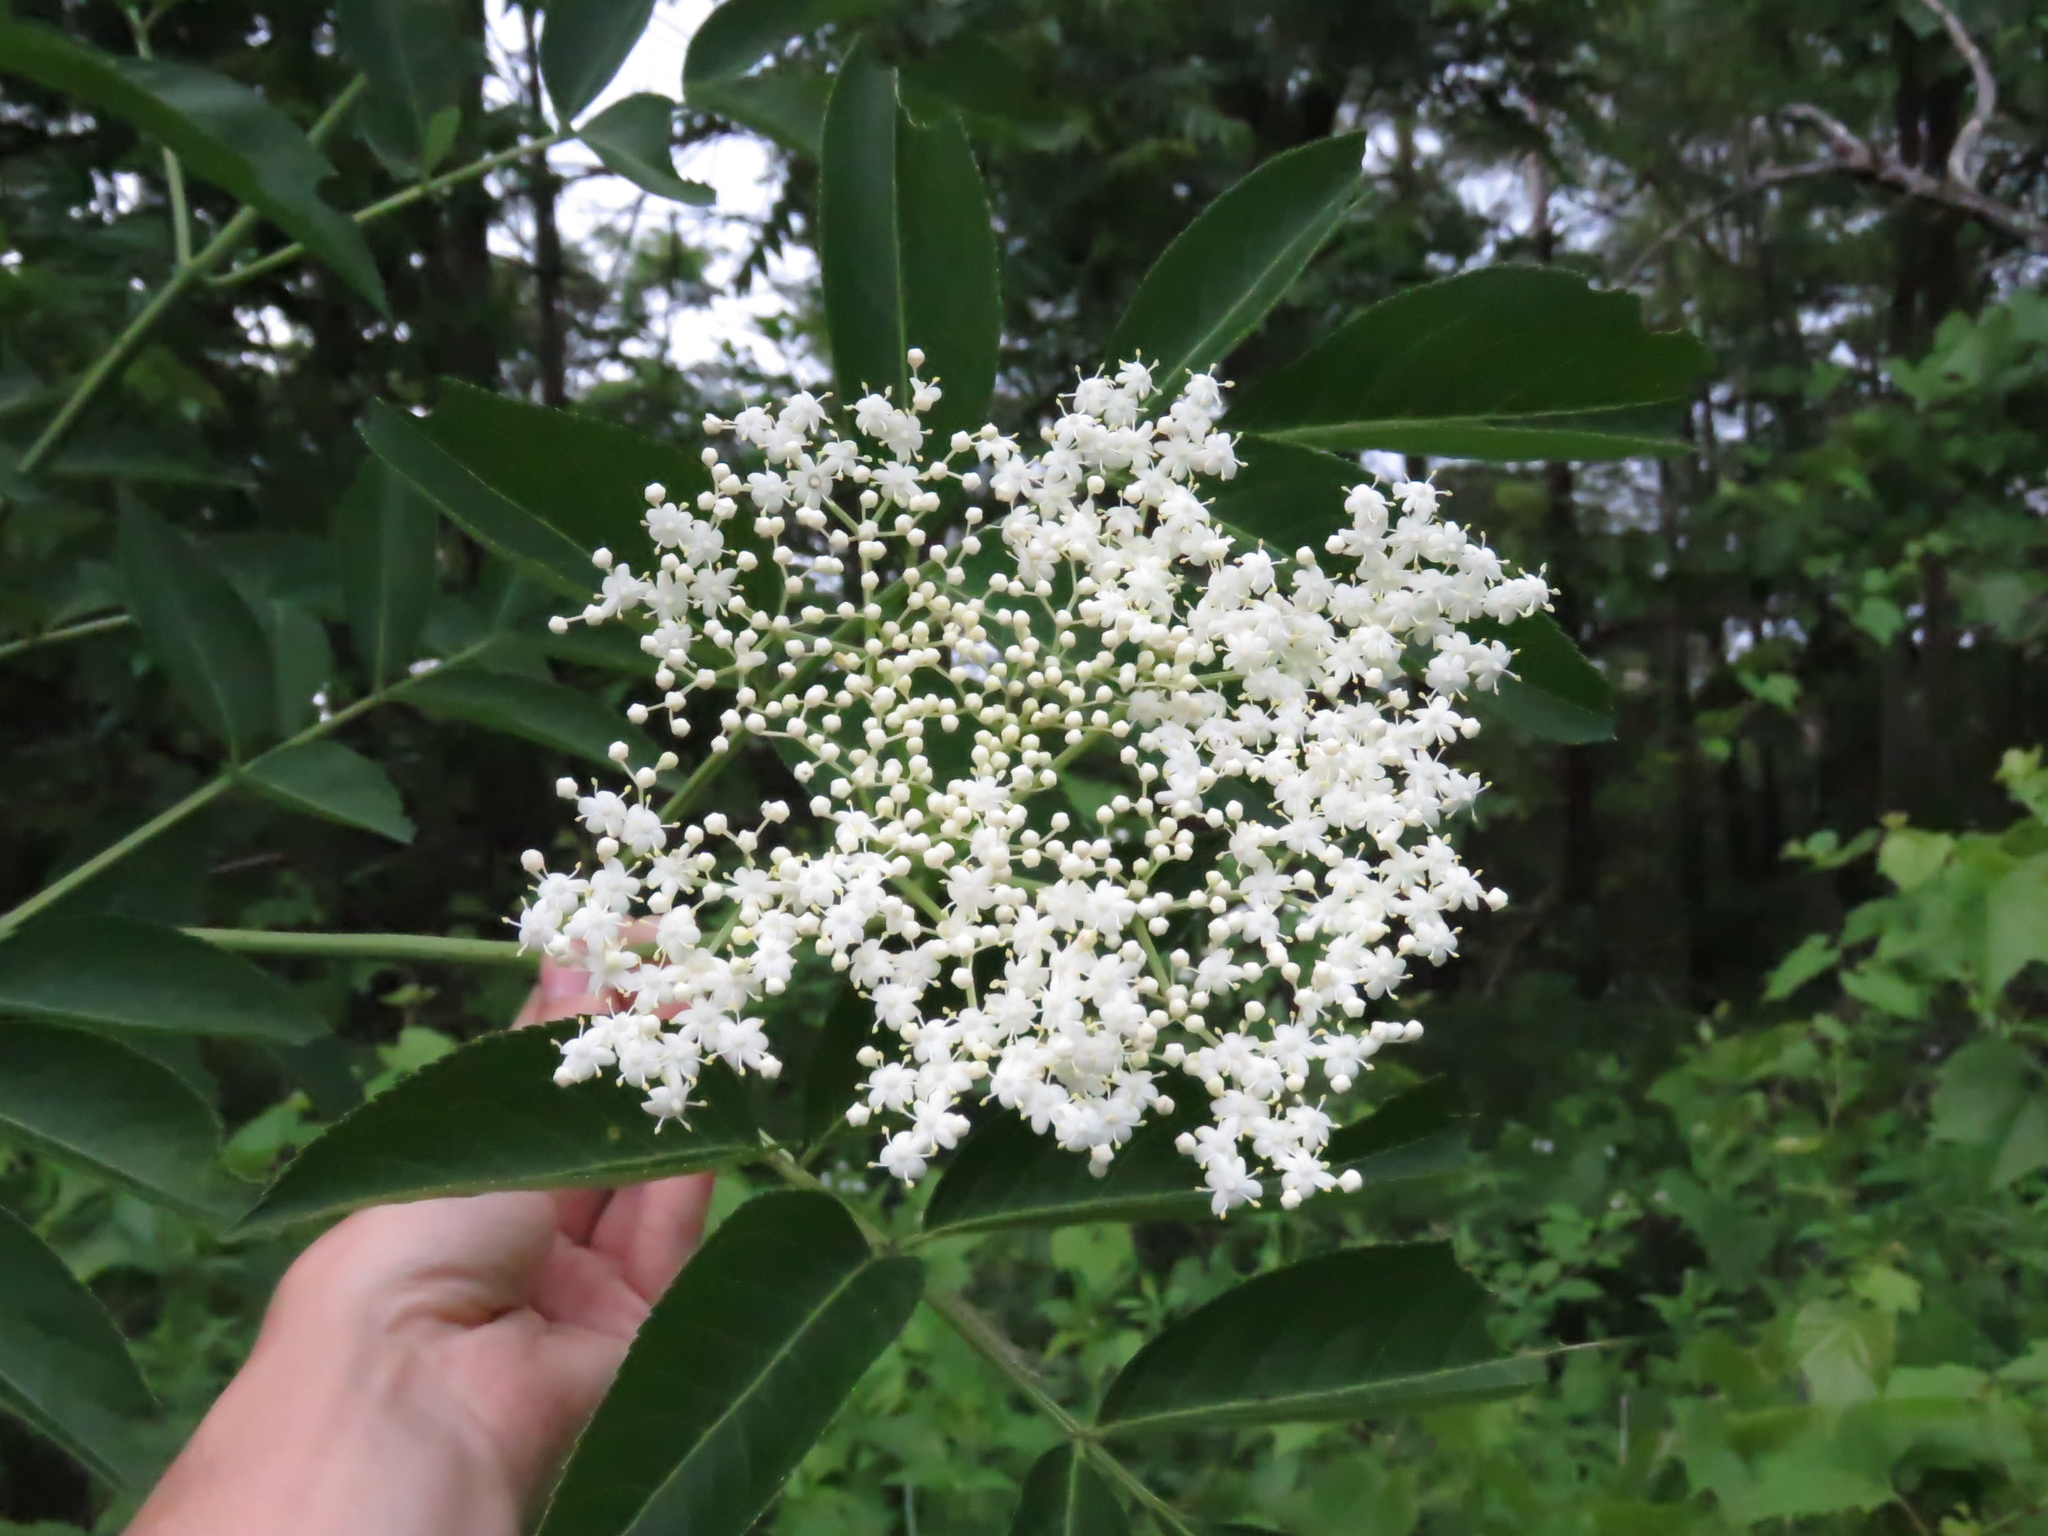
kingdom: Plantae
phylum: Tracheophyta
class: Magnoliopsida
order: Dipsacales
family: Viburnaceae
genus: Sambucus
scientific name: Sambucus canadensis
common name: American elder
